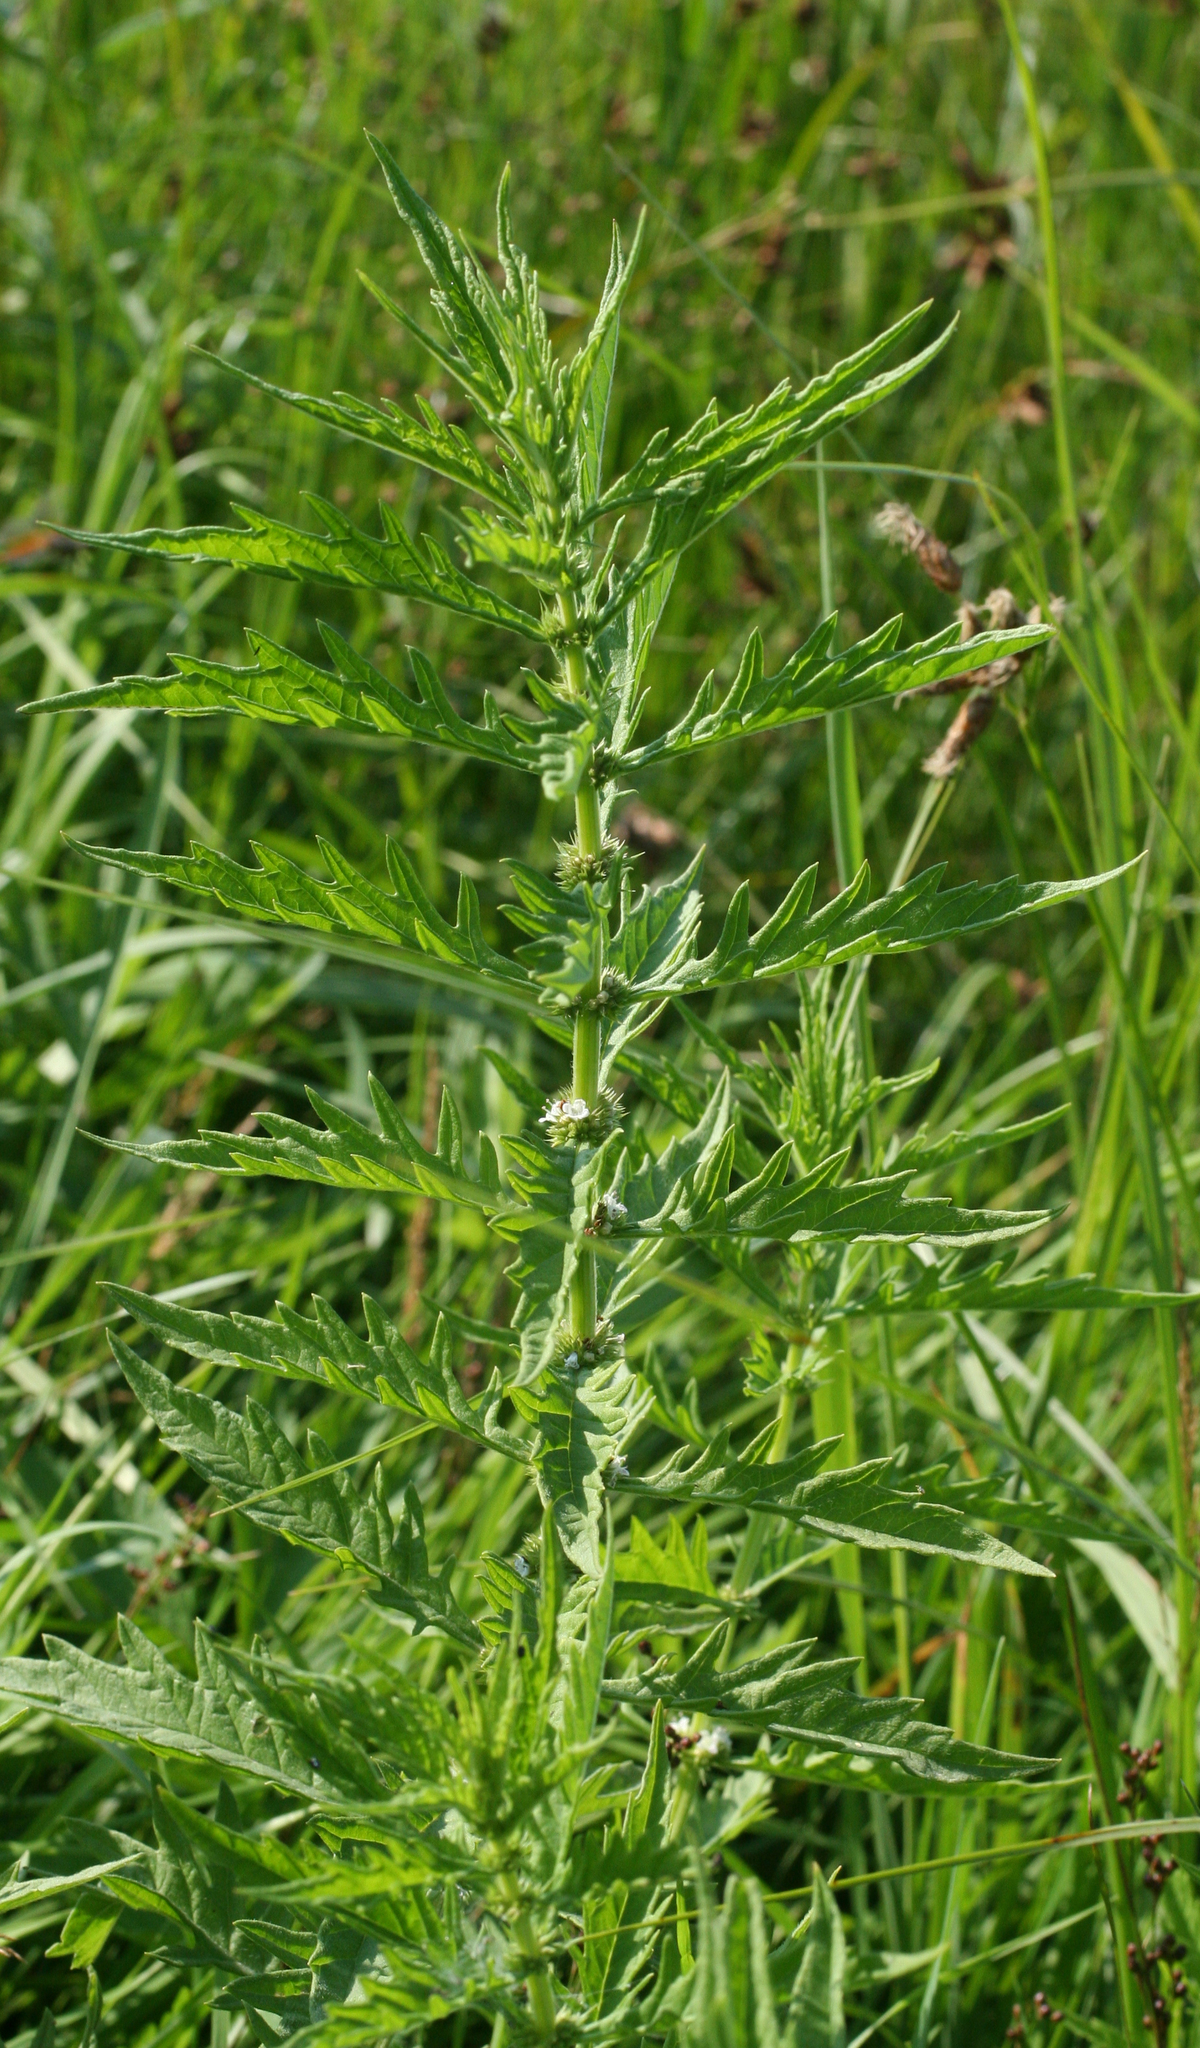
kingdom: Plantae
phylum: Tracheophyta
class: Magnoliopsida
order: Lamiales
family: Lamiaceae
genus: Lycopus
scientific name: Lycopus exaltatus
